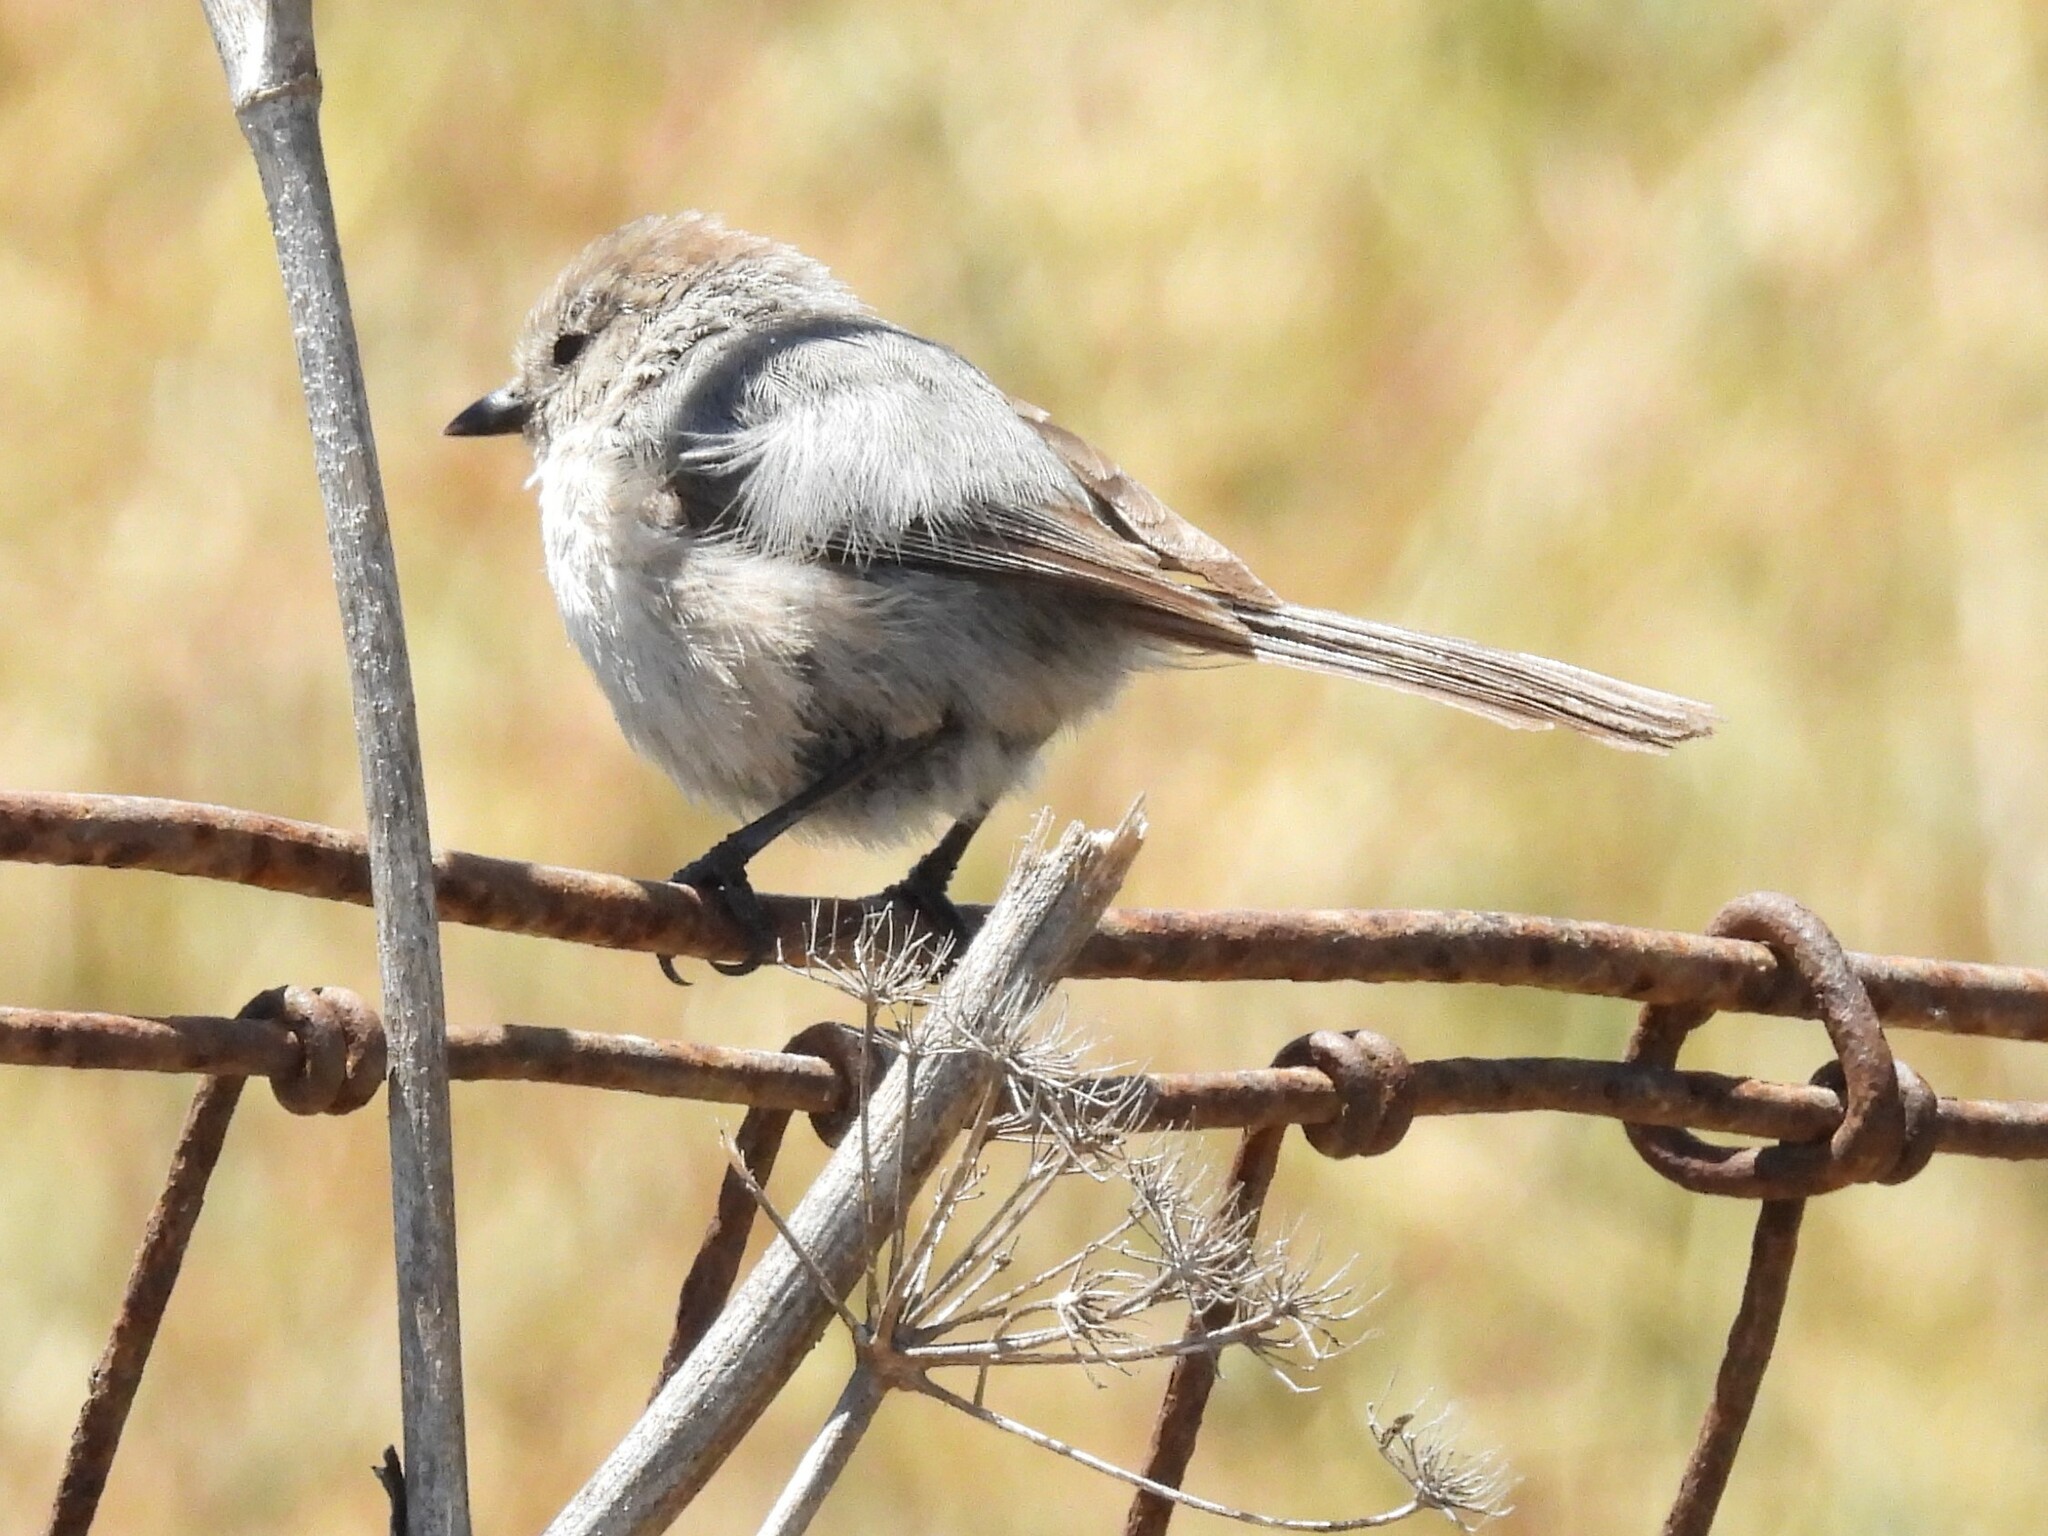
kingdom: Animalia
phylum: Chordata
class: Aves
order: Passeriformes
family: Aegithalidae
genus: Psaltriparus
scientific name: Psaltriparus minimus
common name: American bushtit
